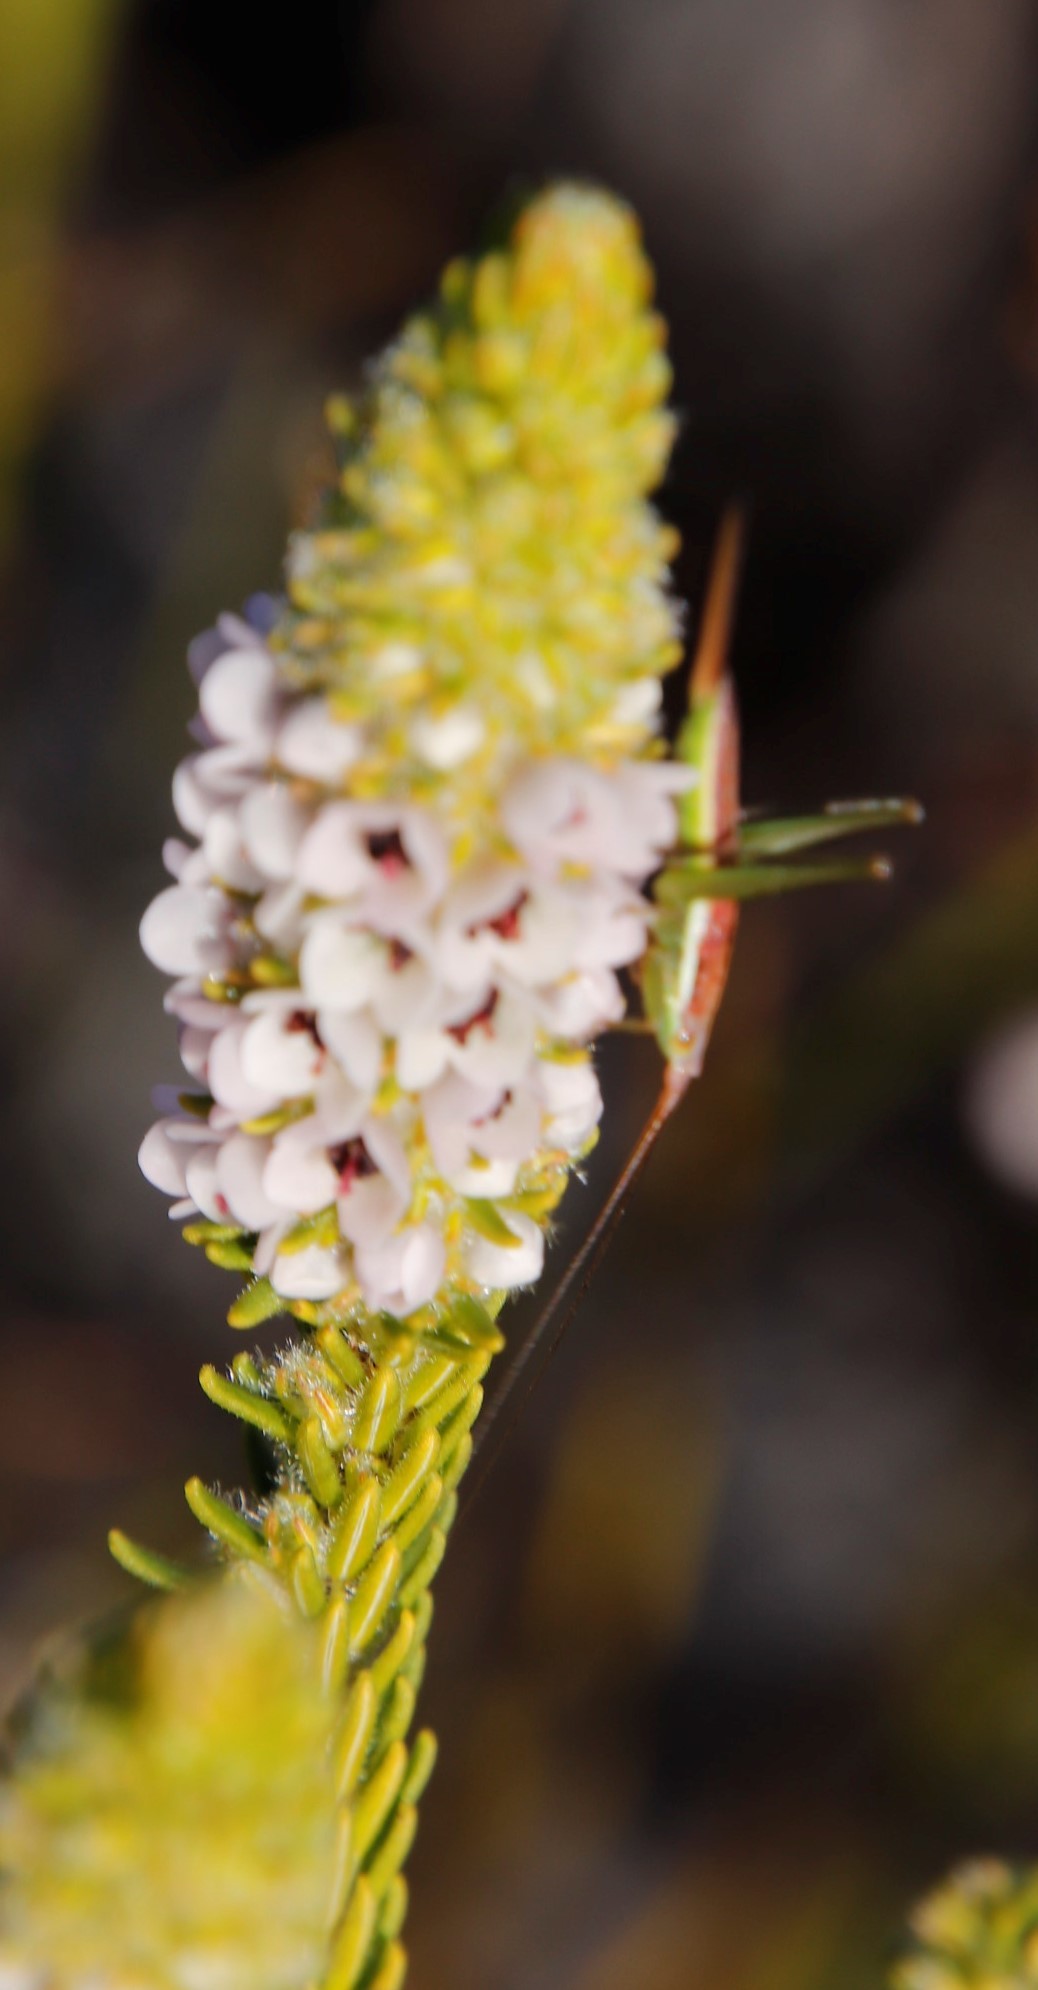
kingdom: Plantae
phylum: Tracheophyta
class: Magnoliopsida
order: Ericales
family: Ericaceae
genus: Erica
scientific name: Erica pyxidiflora
